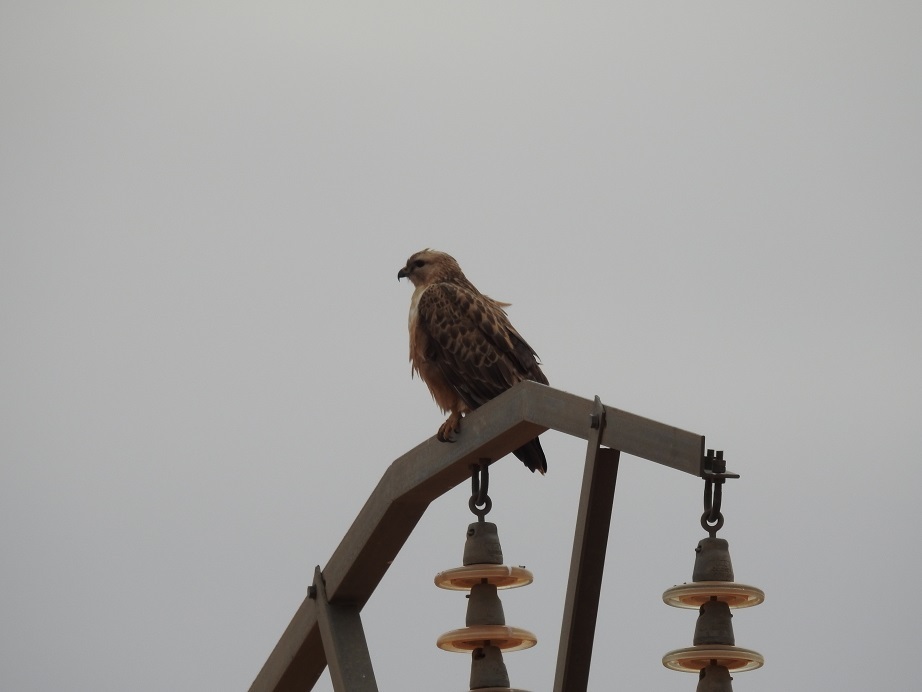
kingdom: Animalia
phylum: Chordata
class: Aves
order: Accipitriformes
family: Accipitridae
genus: Buteo
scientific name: Buteo rufinus
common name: Long-legged buzzard
